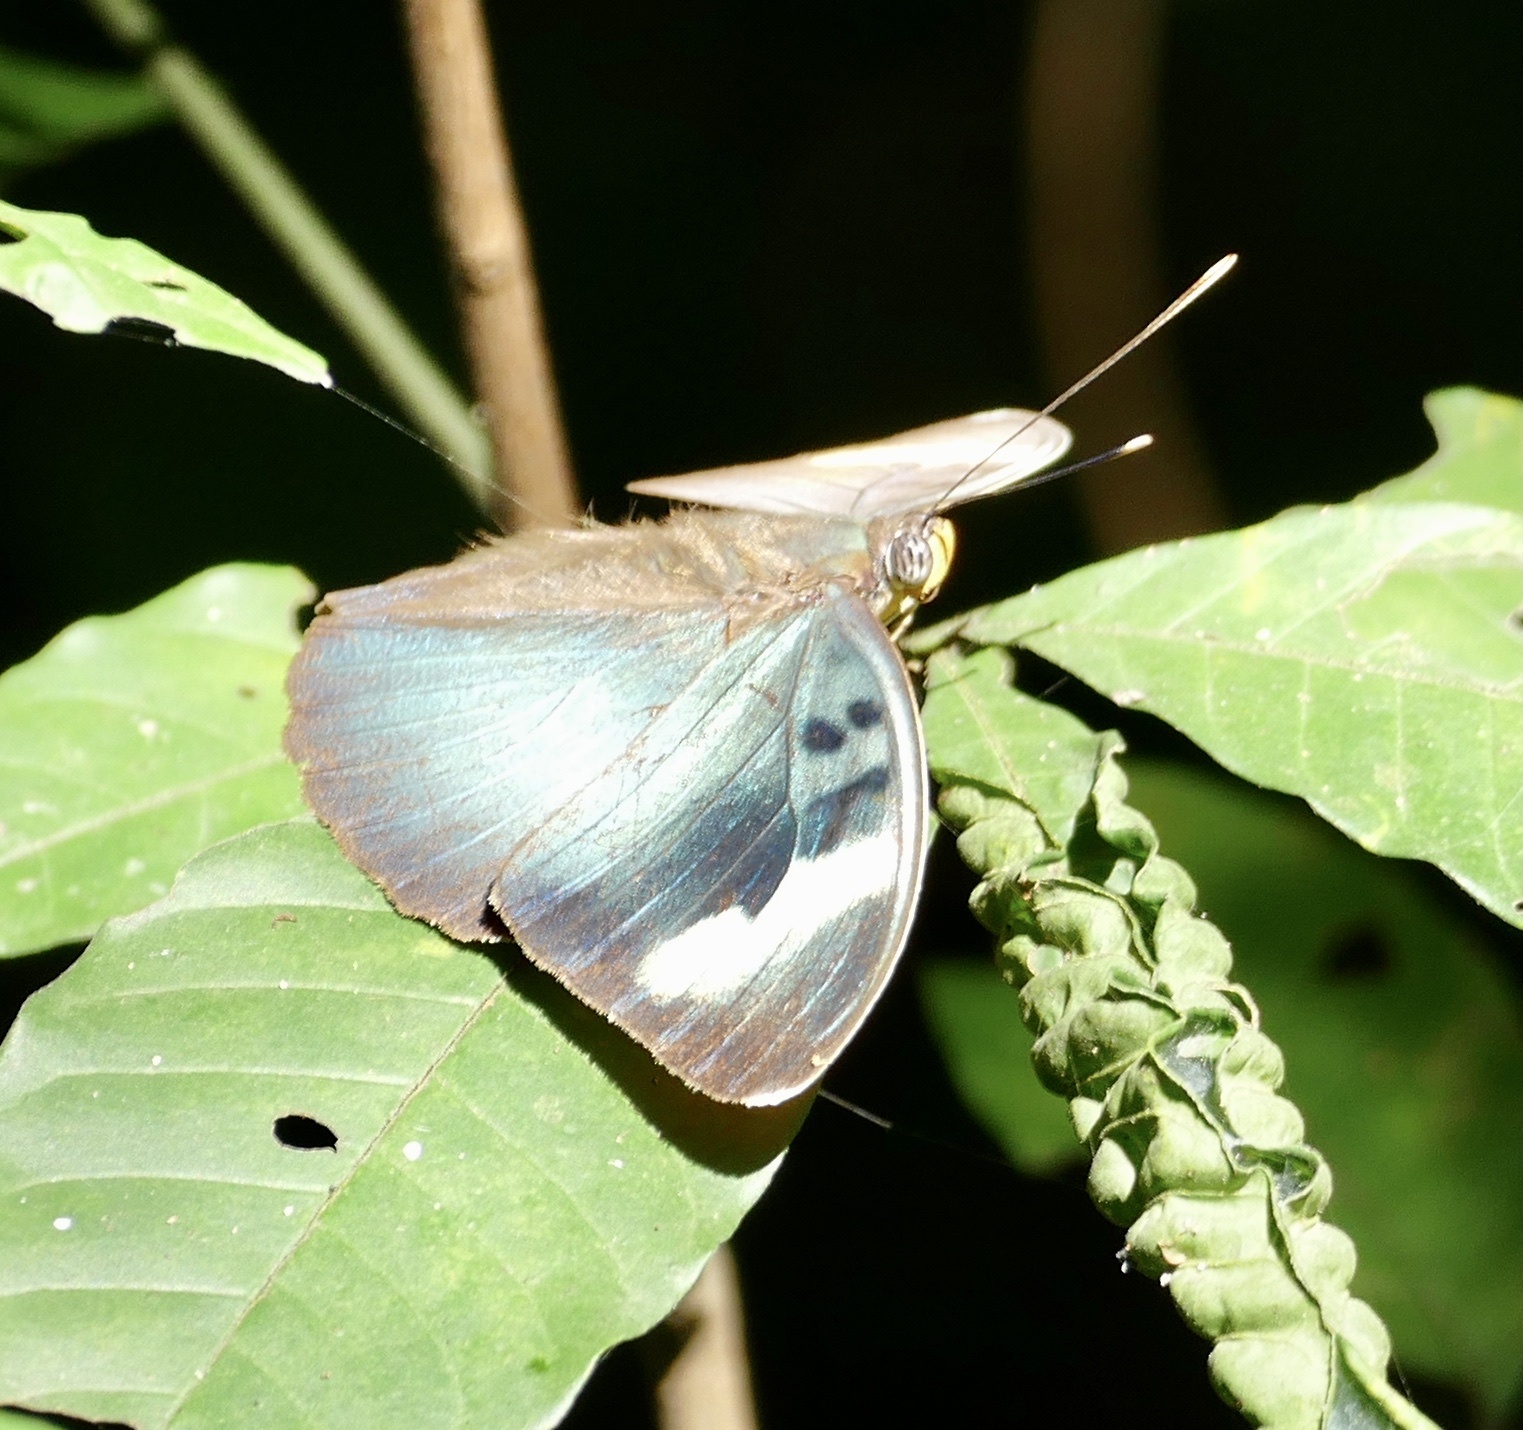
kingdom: Animalia
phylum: Arthropoda
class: Insecta
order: Lepidoptera
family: Nymphalidae
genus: Euphaedra
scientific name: Euphaedra medon
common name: Widespread forester
